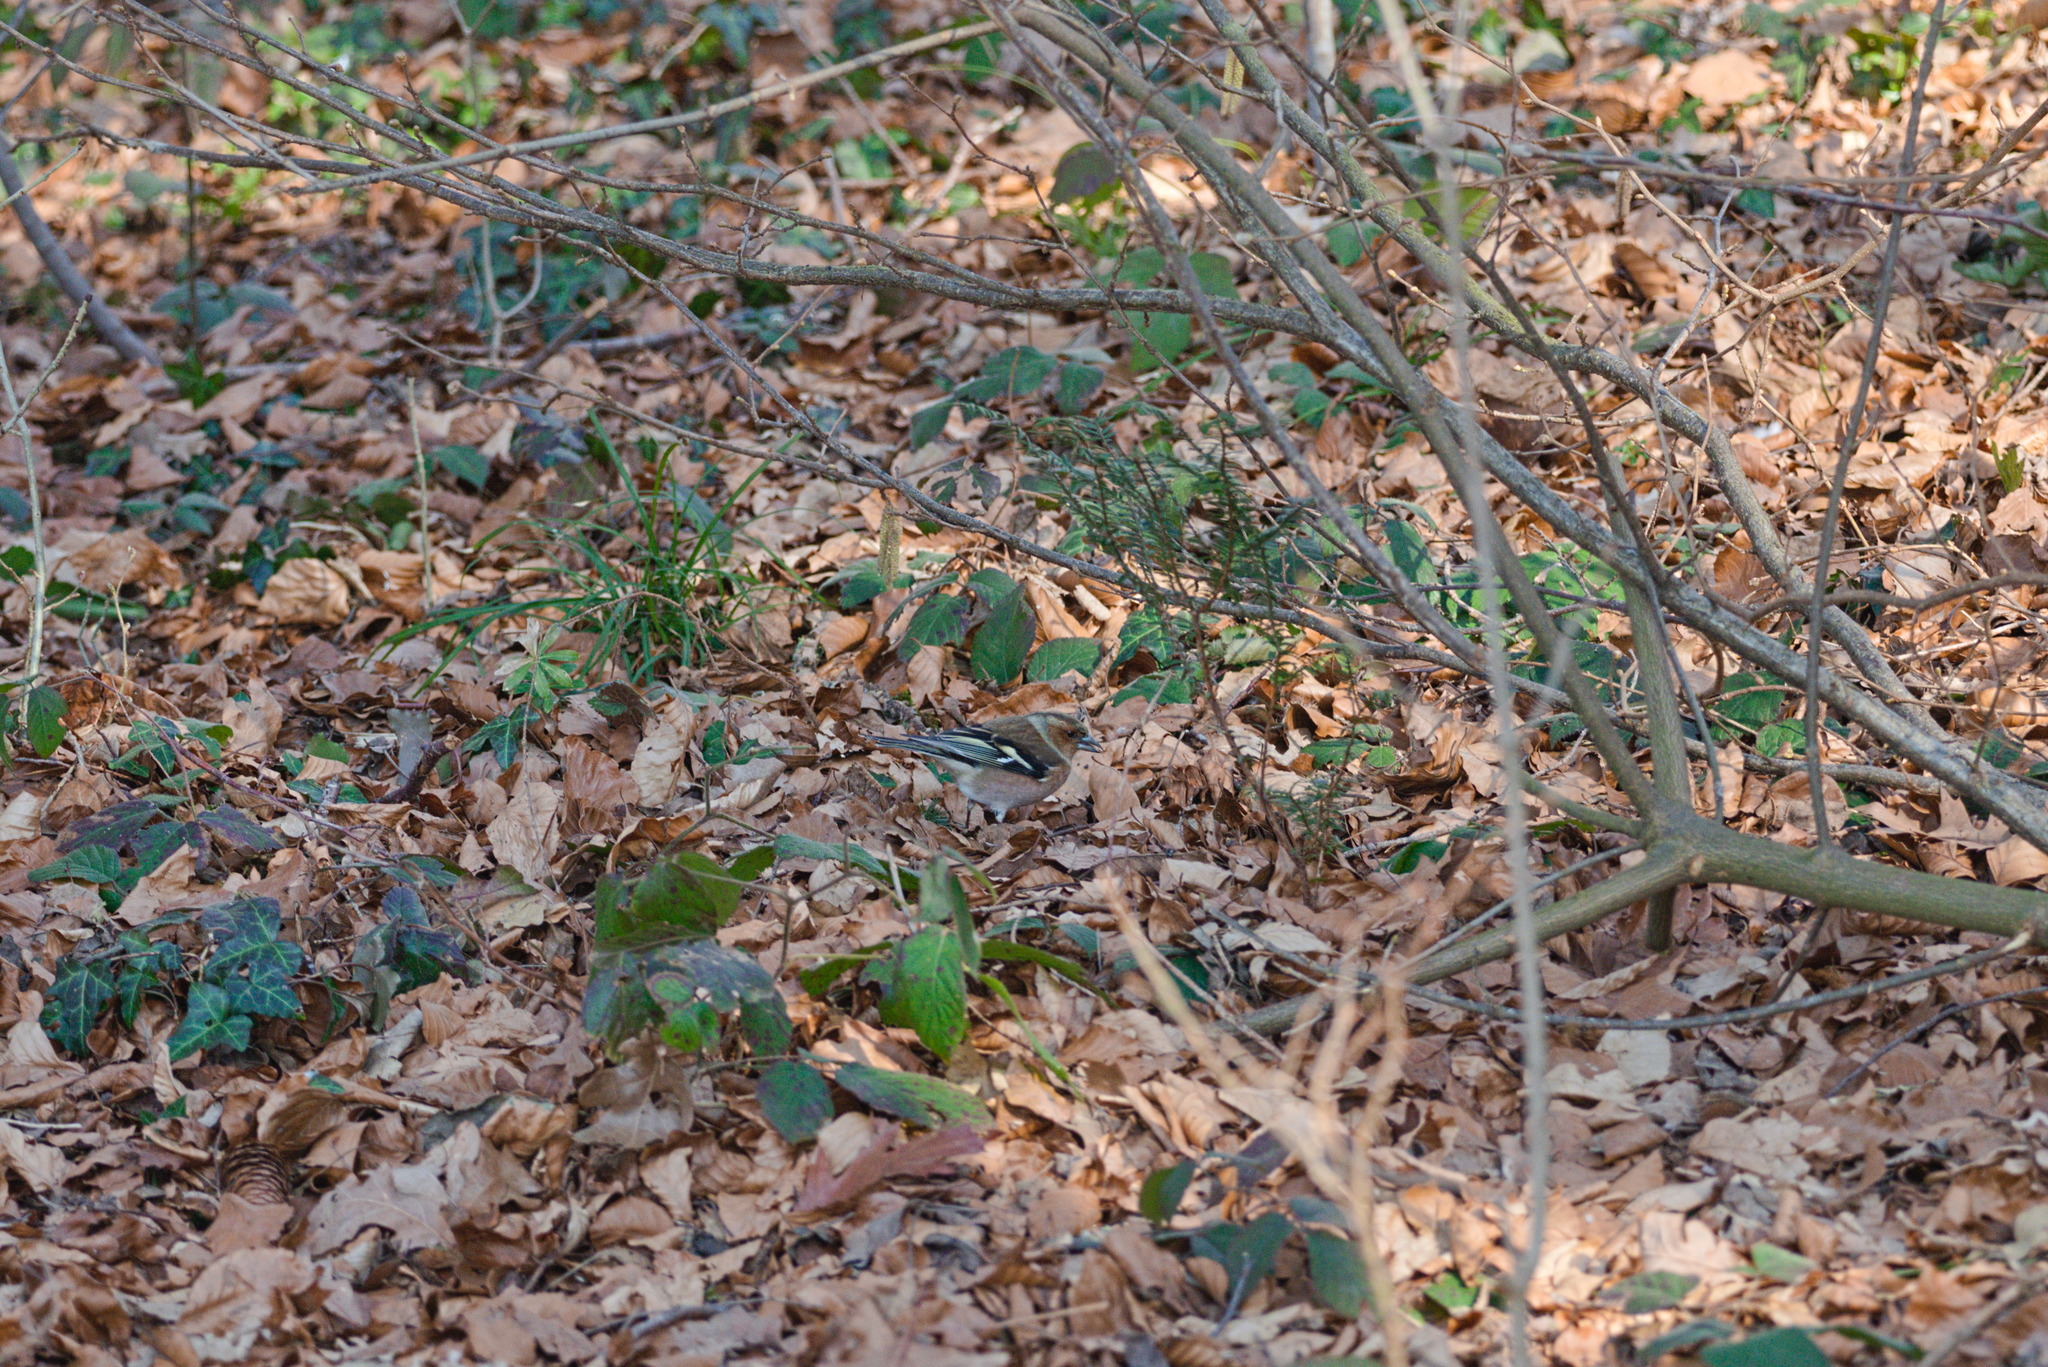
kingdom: Animalia
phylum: Chordata
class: Aves
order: Passeriformes
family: Fringillidae
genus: Fringilla
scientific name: Fringilla coelebs
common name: Common chaffinch
